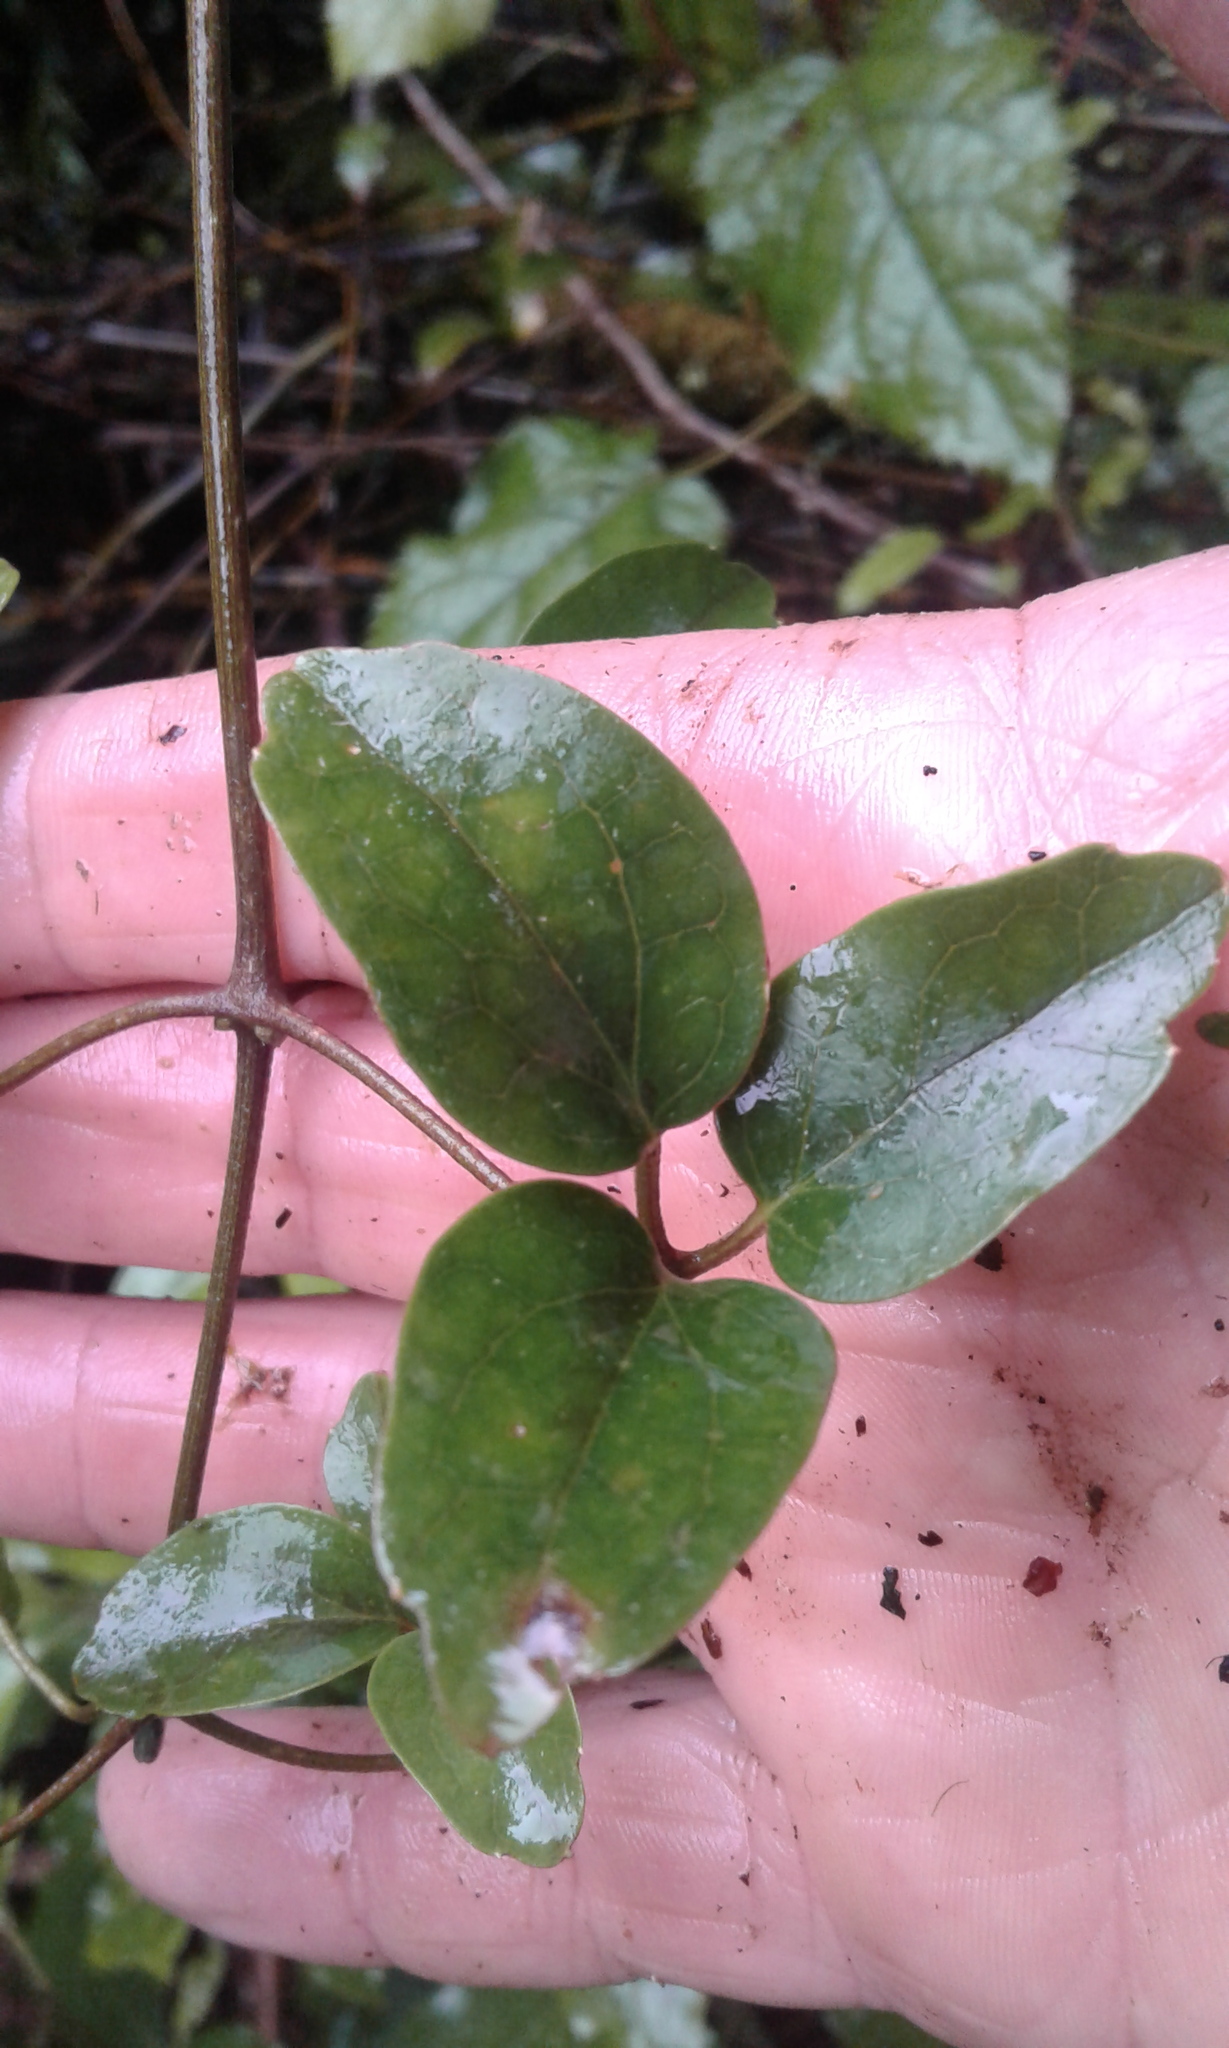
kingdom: Plantae
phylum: Tracheophyta
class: Magnoliopsida
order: Ranunculales
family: Ranunculaceae
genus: Clematis
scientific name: Clematis paniculata
